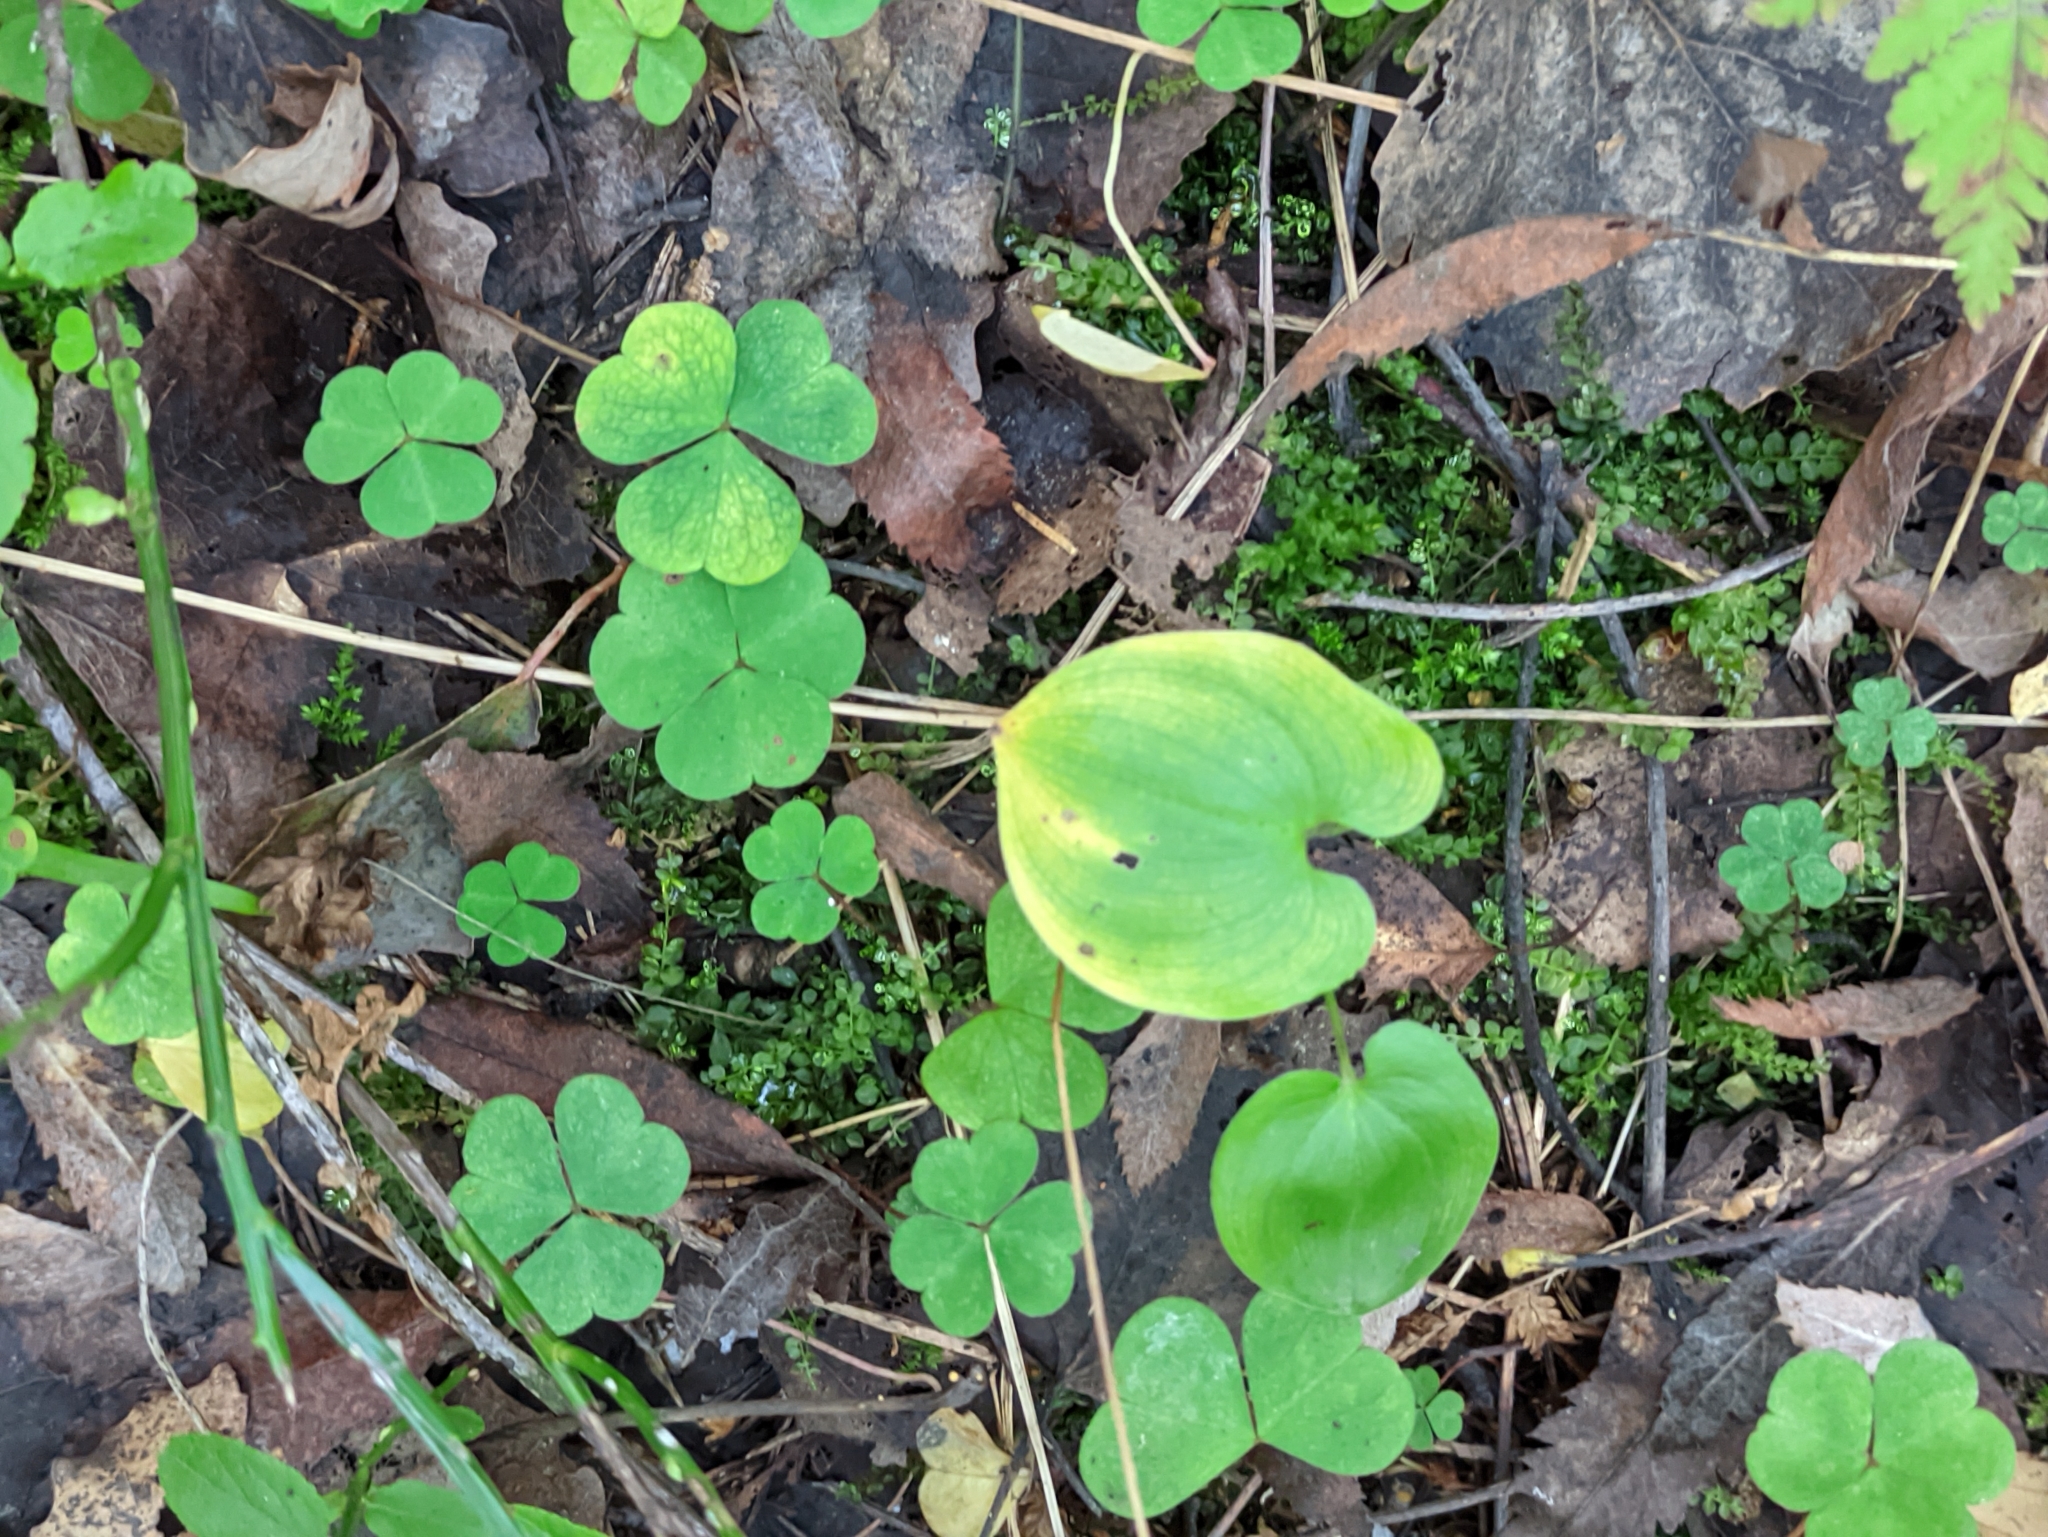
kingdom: Plantae
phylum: Tracheophyta
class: Liliopsida
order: Asparagales
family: Asparagaceae
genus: Maianthemum
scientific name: Maianthemum bifolium
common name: May lily
